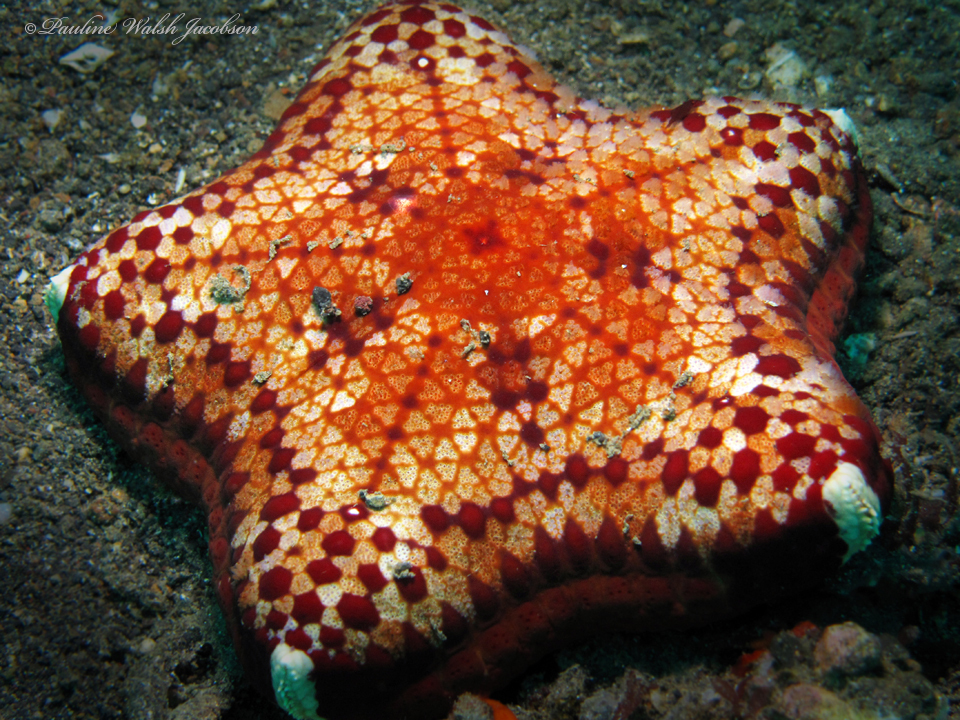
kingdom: Animalia
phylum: Echinodermata
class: Asteroidea
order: Valvatida
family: Oreasteridae
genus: Halityle
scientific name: Halityle regularis
